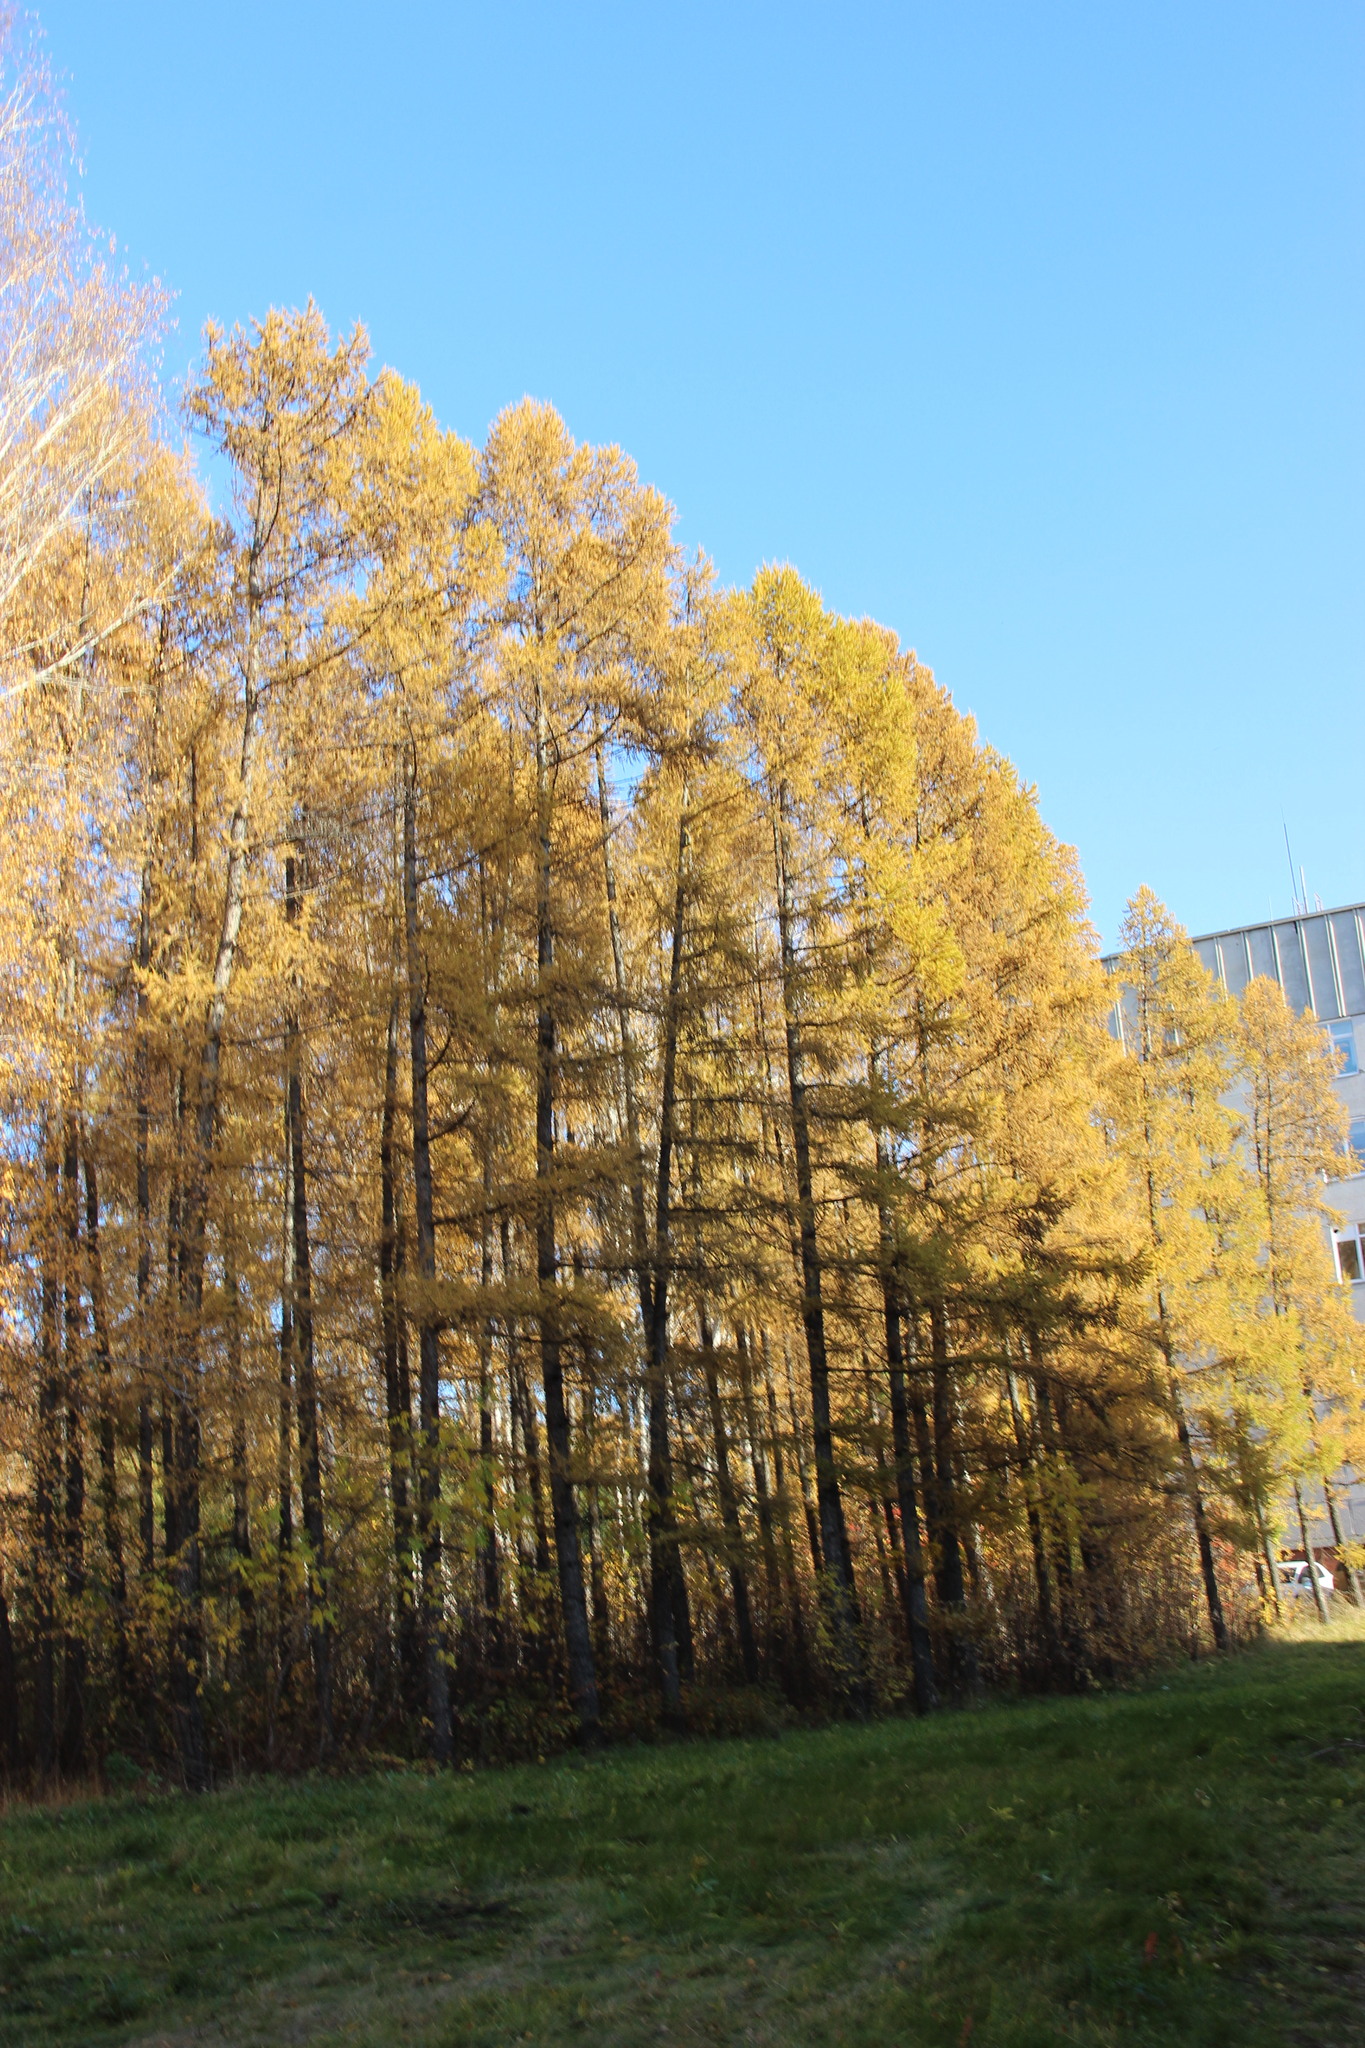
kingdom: Plantae
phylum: Tracheophyta
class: Pinopsida
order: Pinales
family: Pinaceae
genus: Larix
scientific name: Larix sibirica
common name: Siberian larch
